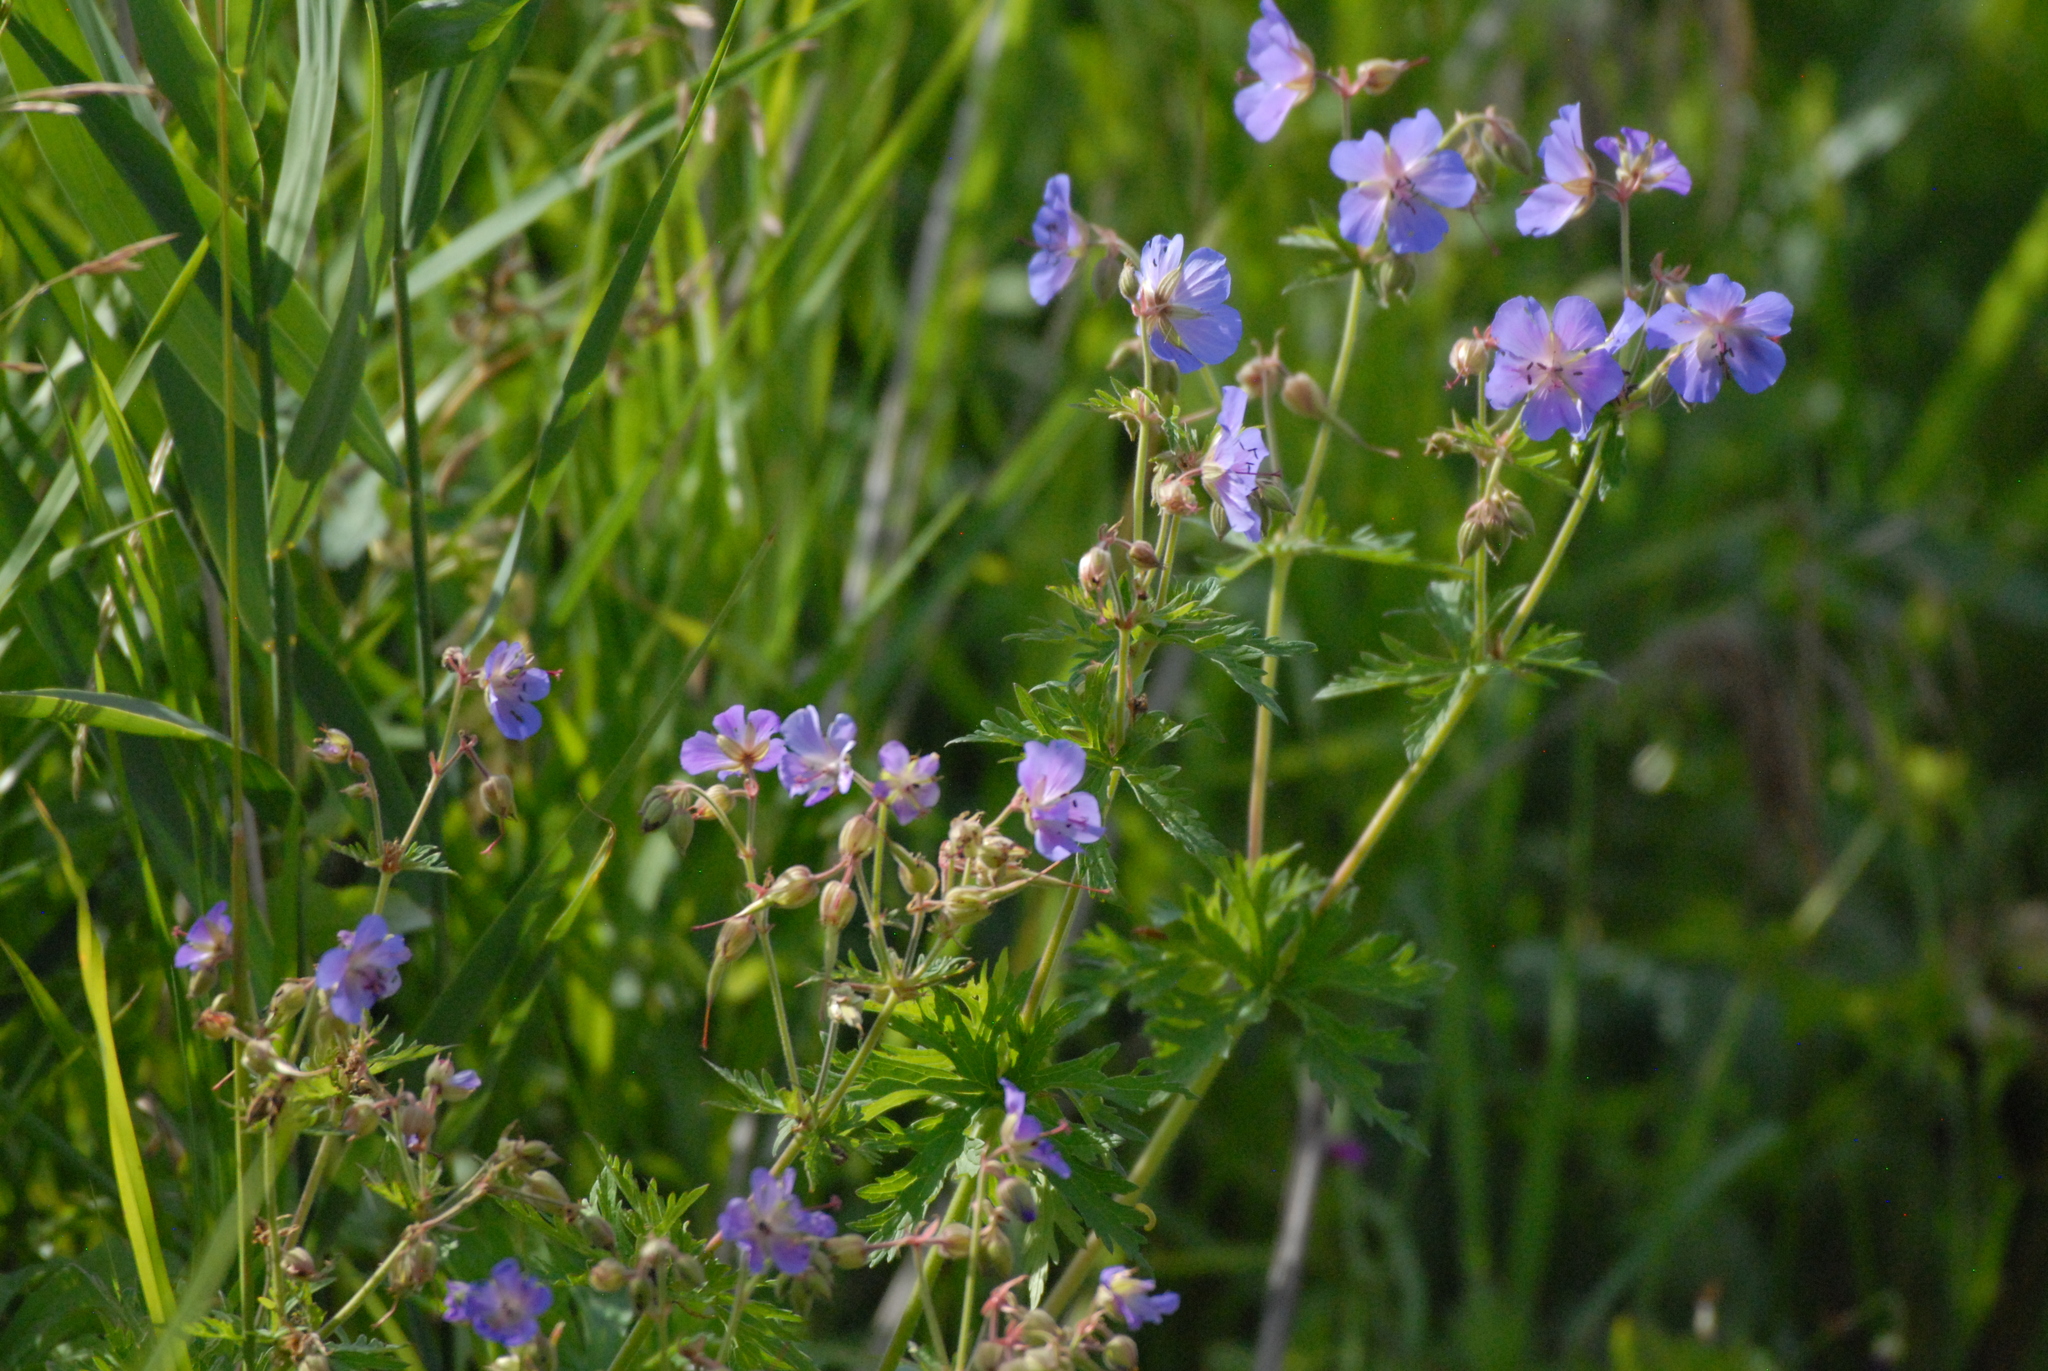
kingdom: Plantae
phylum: Tracheophyta
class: Magnoliopsida
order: Geraniales
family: Geraniaceae
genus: Geranium
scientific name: Geranium pratense
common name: Meadow crane's-bill
